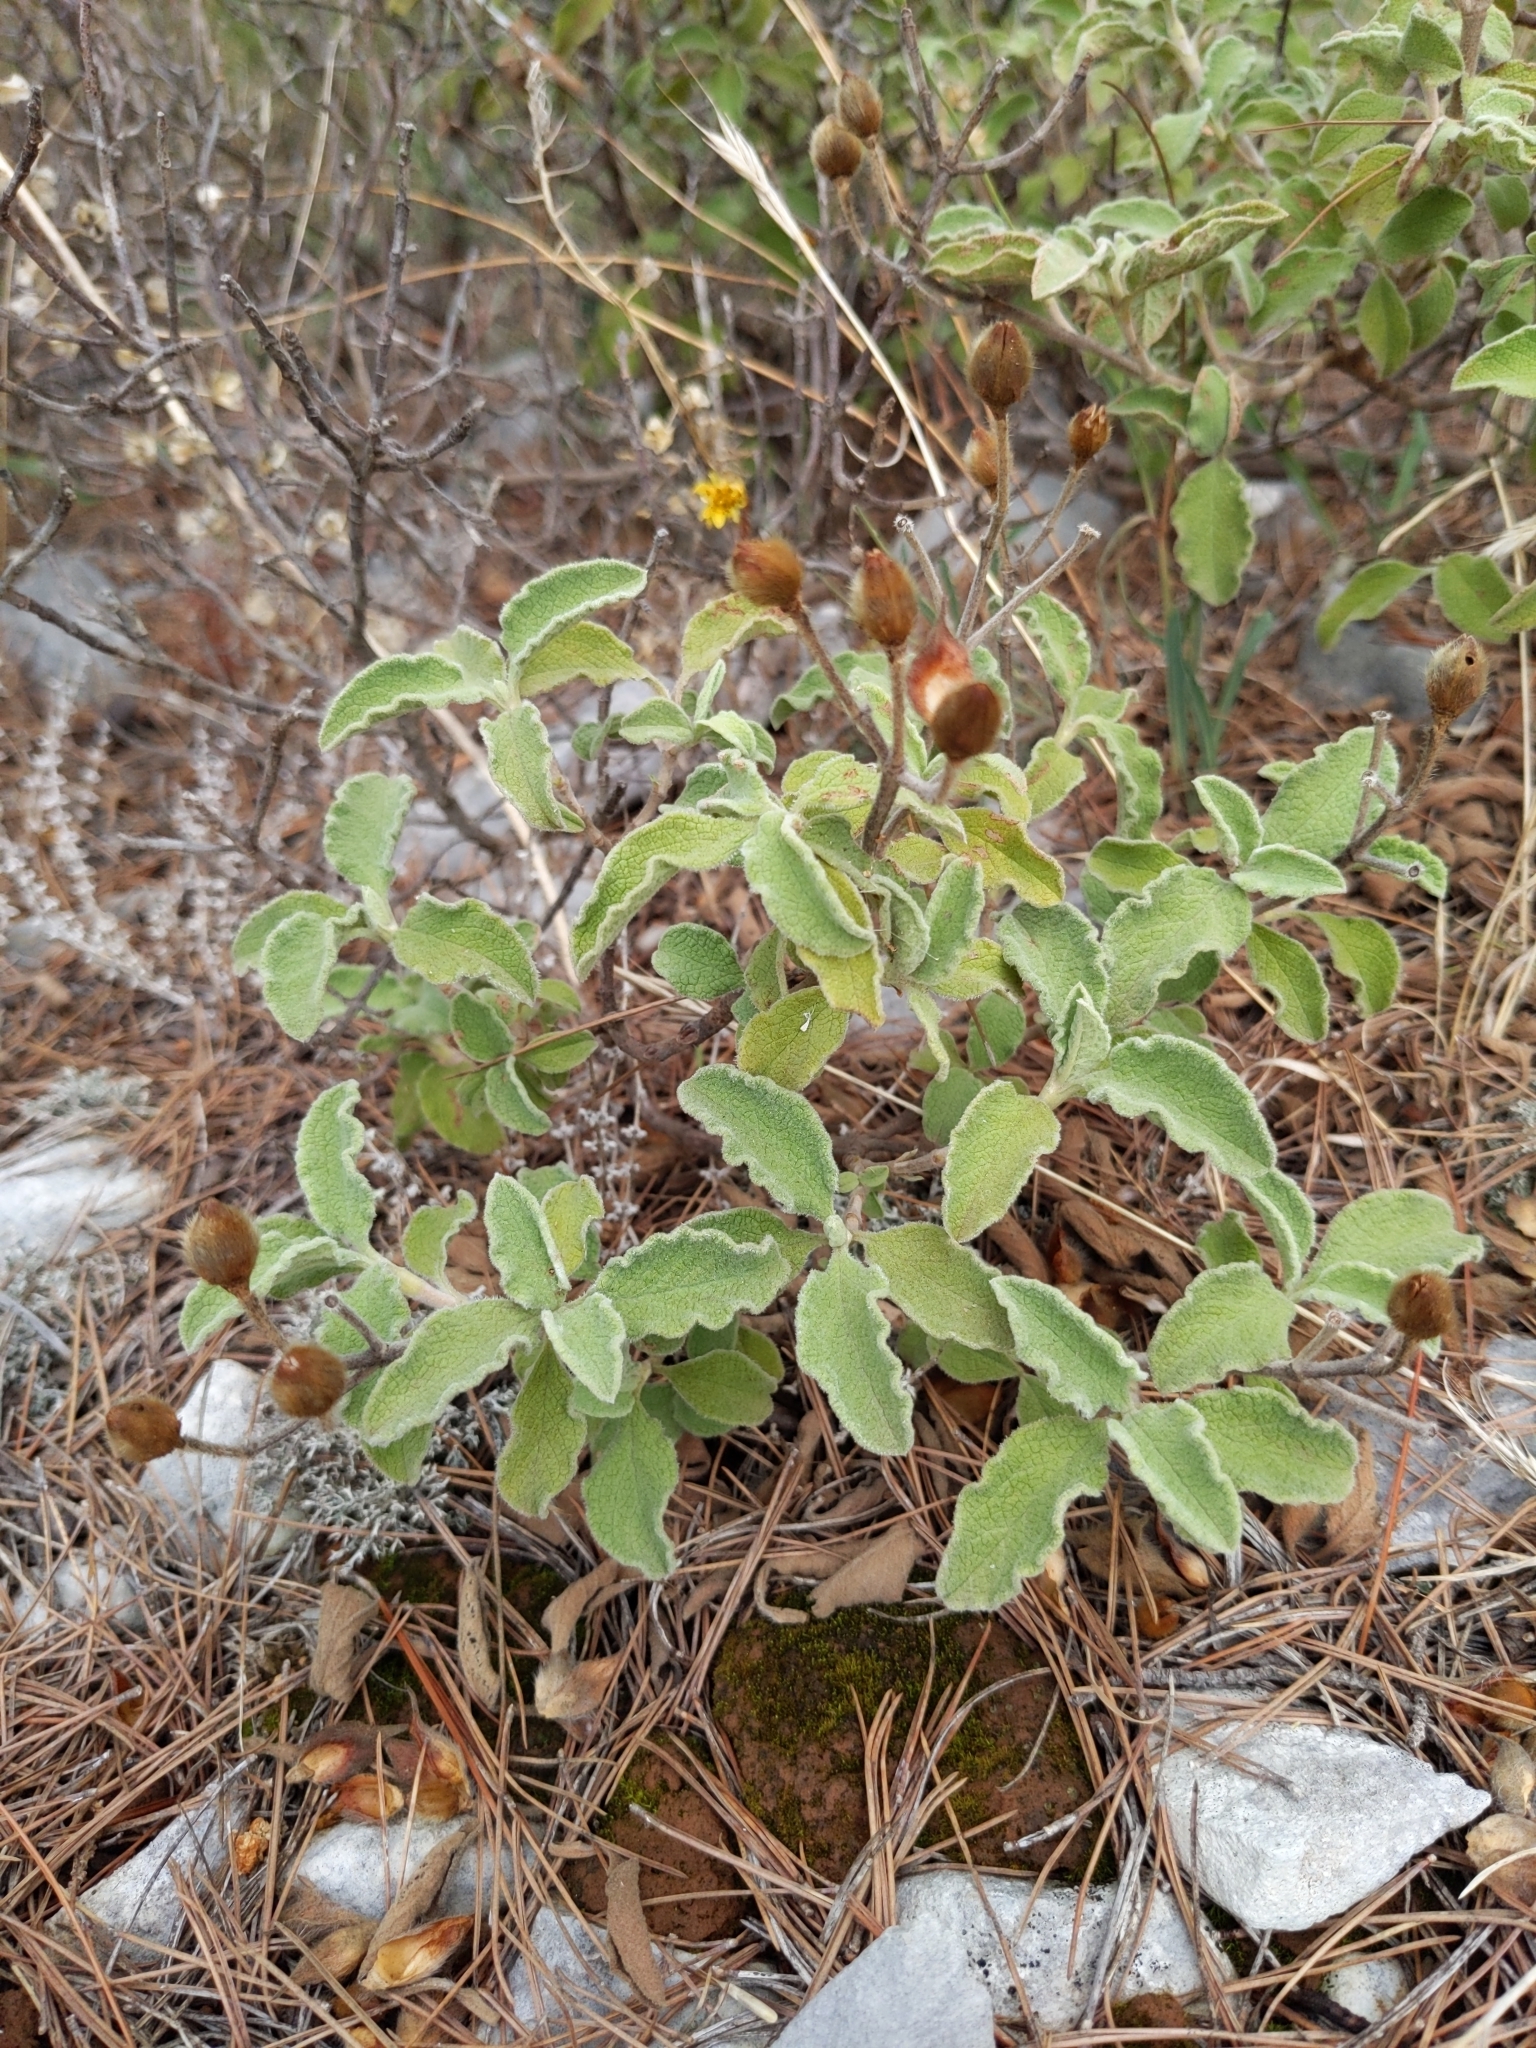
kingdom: Plantae
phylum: Tracheophyta
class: Magnoliopsida
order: Malvales
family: Cistaceae
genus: Cistus
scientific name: Cistus creticus
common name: Cretan rockrose
